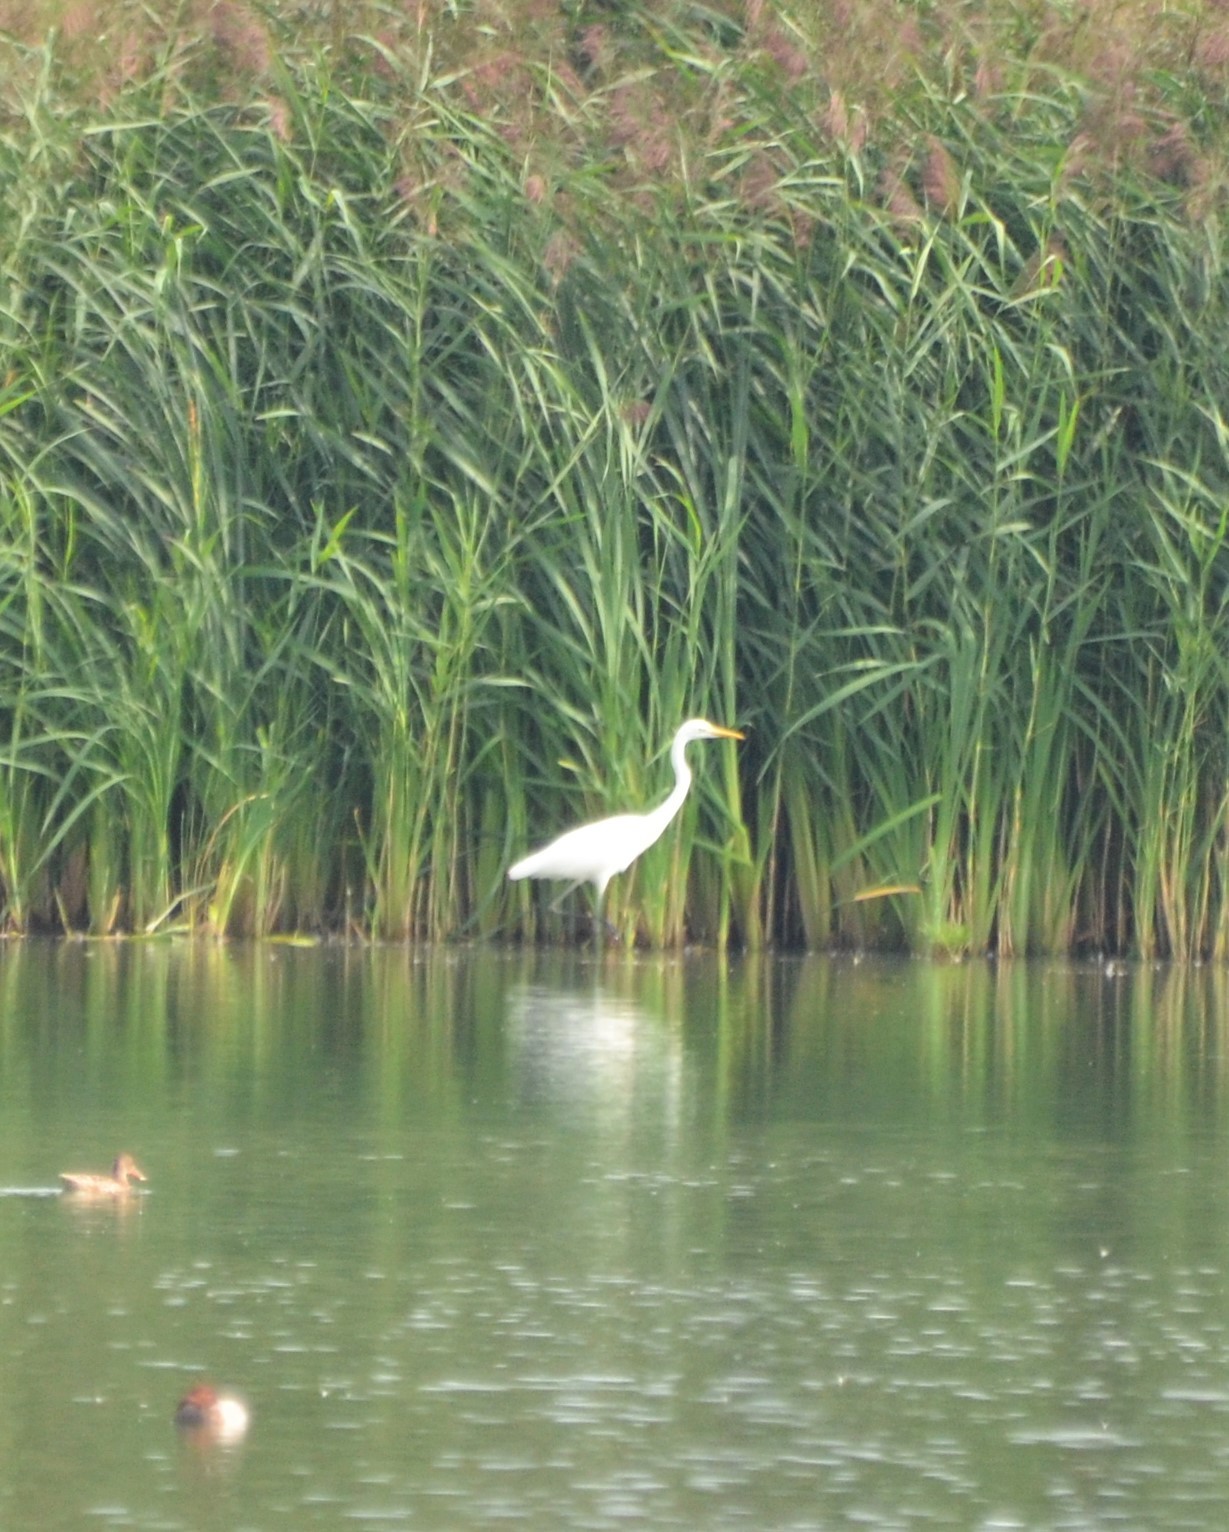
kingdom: Animalia
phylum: Chordata
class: Aves
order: Pelecaniformes
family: Ardeidae
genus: Ardea
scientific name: Ardea alba
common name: Great egret
